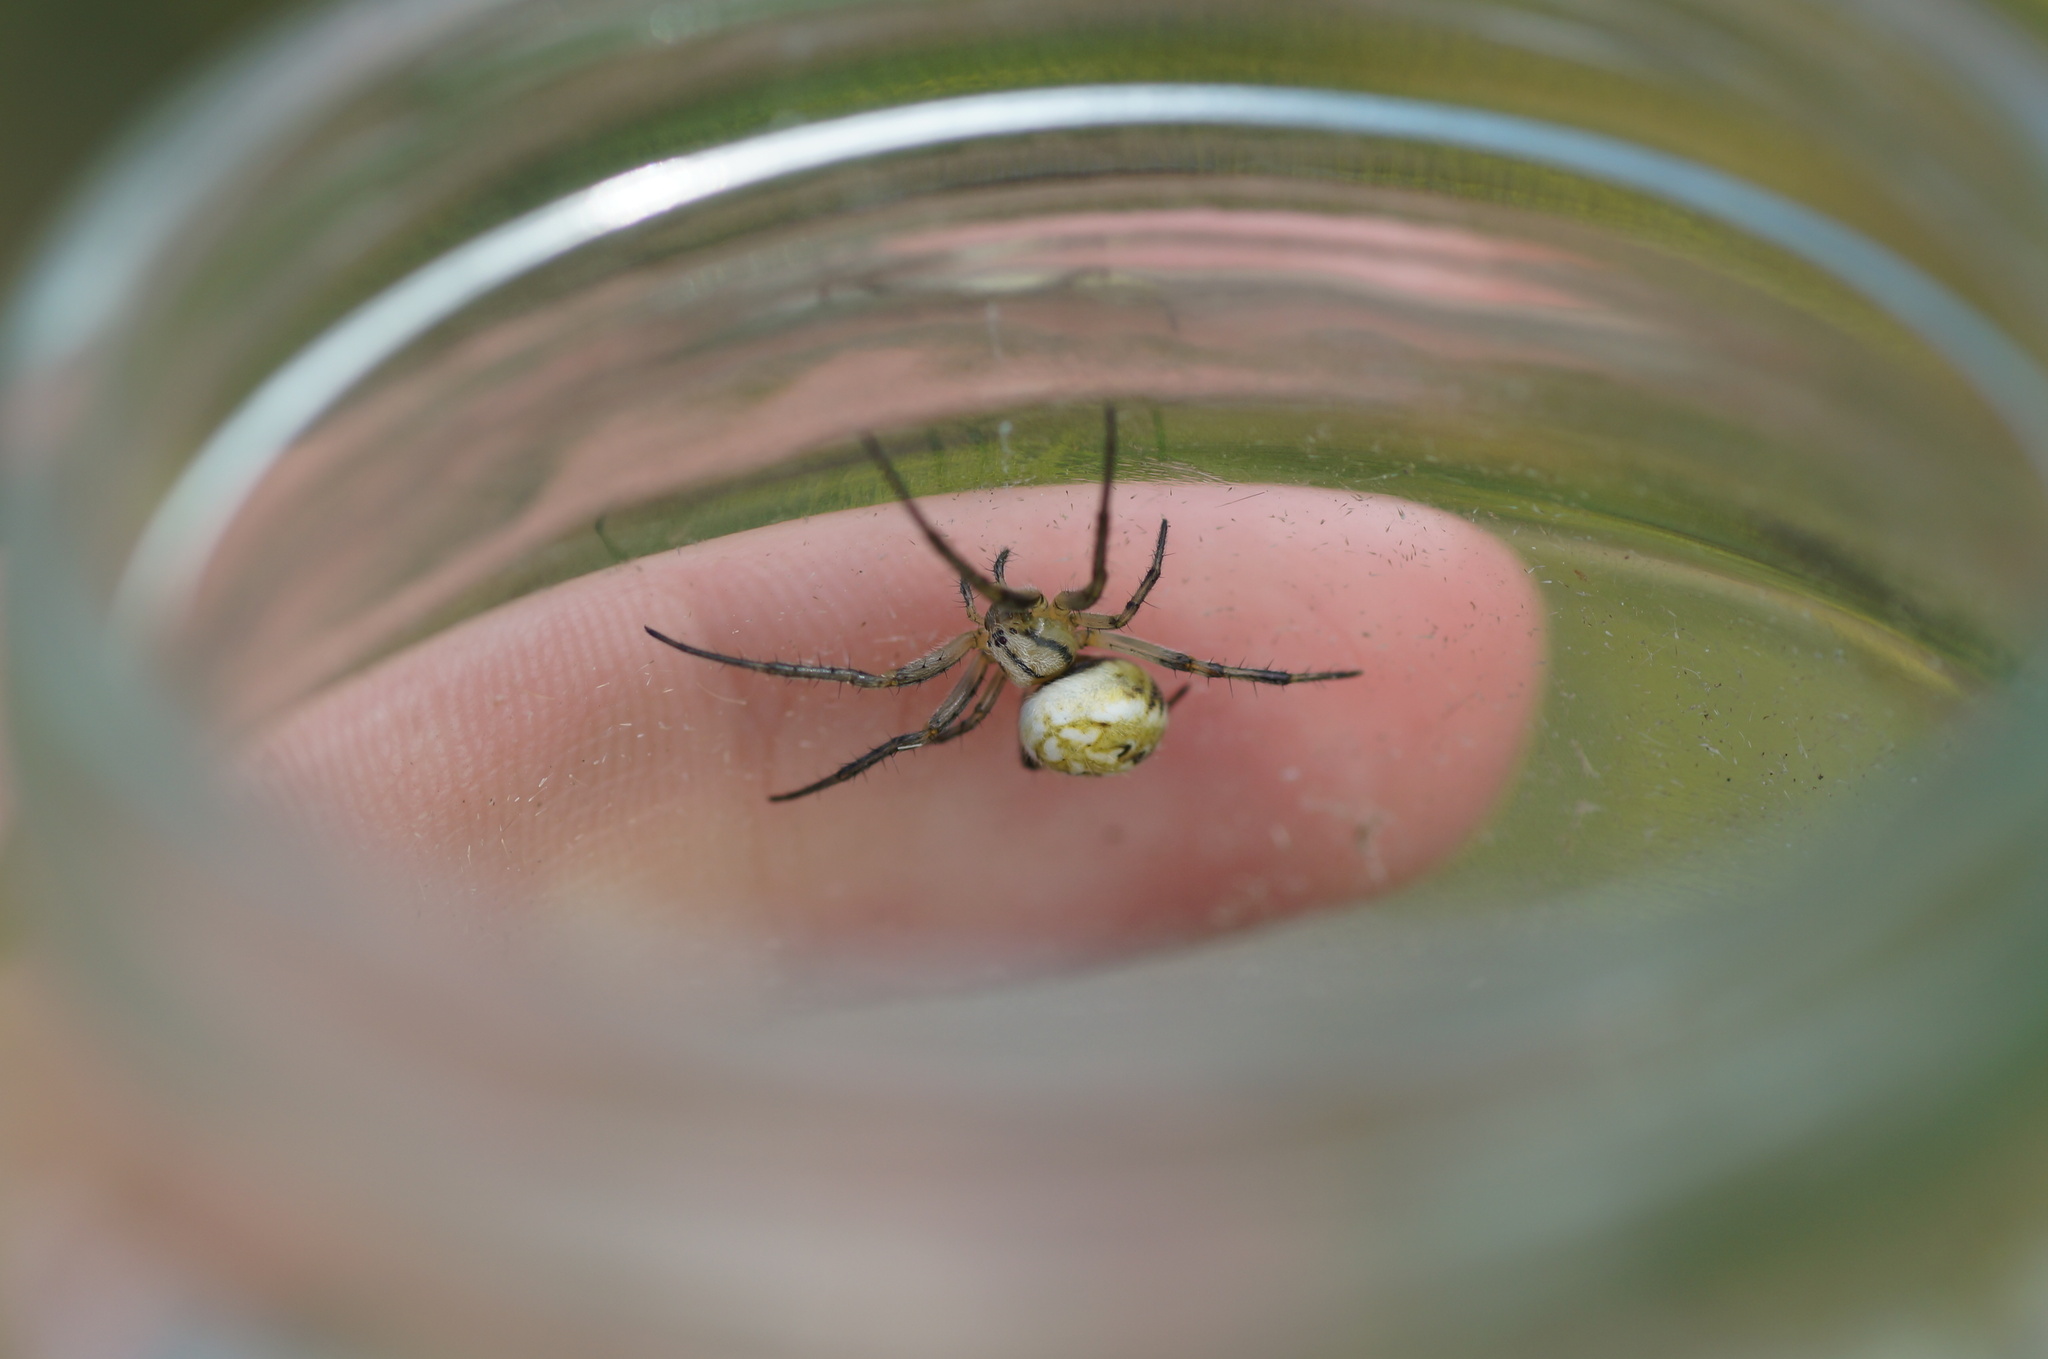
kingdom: Animalia
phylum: Arthropoda
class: Arachnida
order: Araneae
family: Araneidae
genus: Neoscona
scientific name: Neoscona adianta
